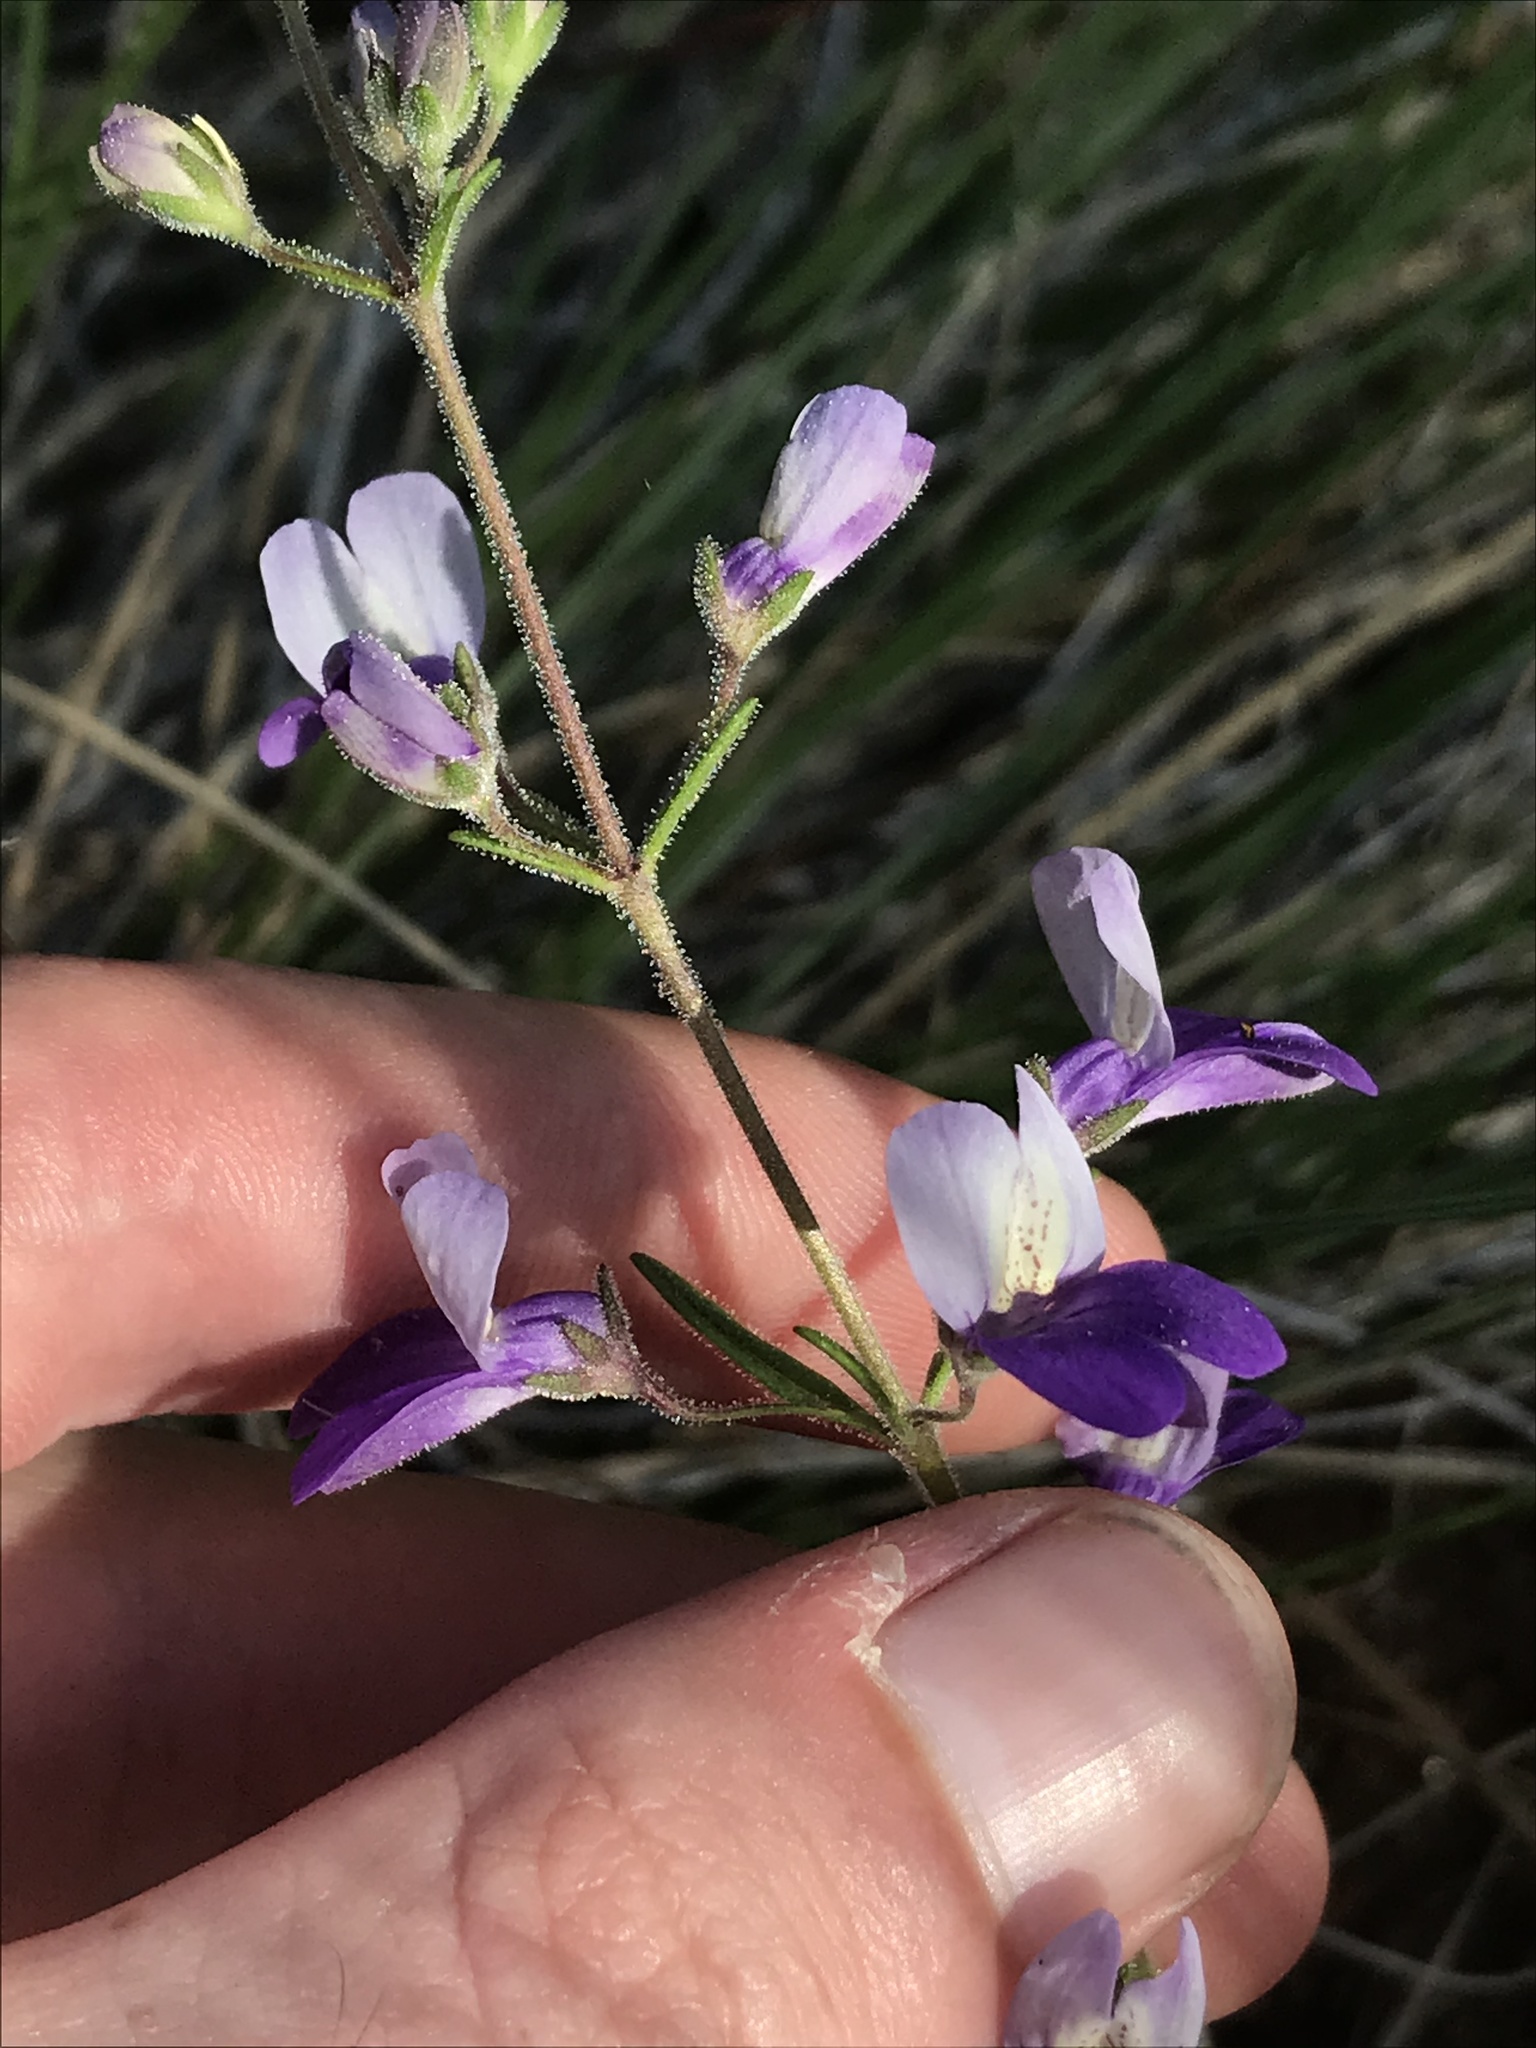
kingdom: Plantae
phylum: Tracheophyta
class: Magnoliopsida
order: Lamiales
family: Plantaginaceae
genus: Collinsia
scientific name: Collinsia linearis
